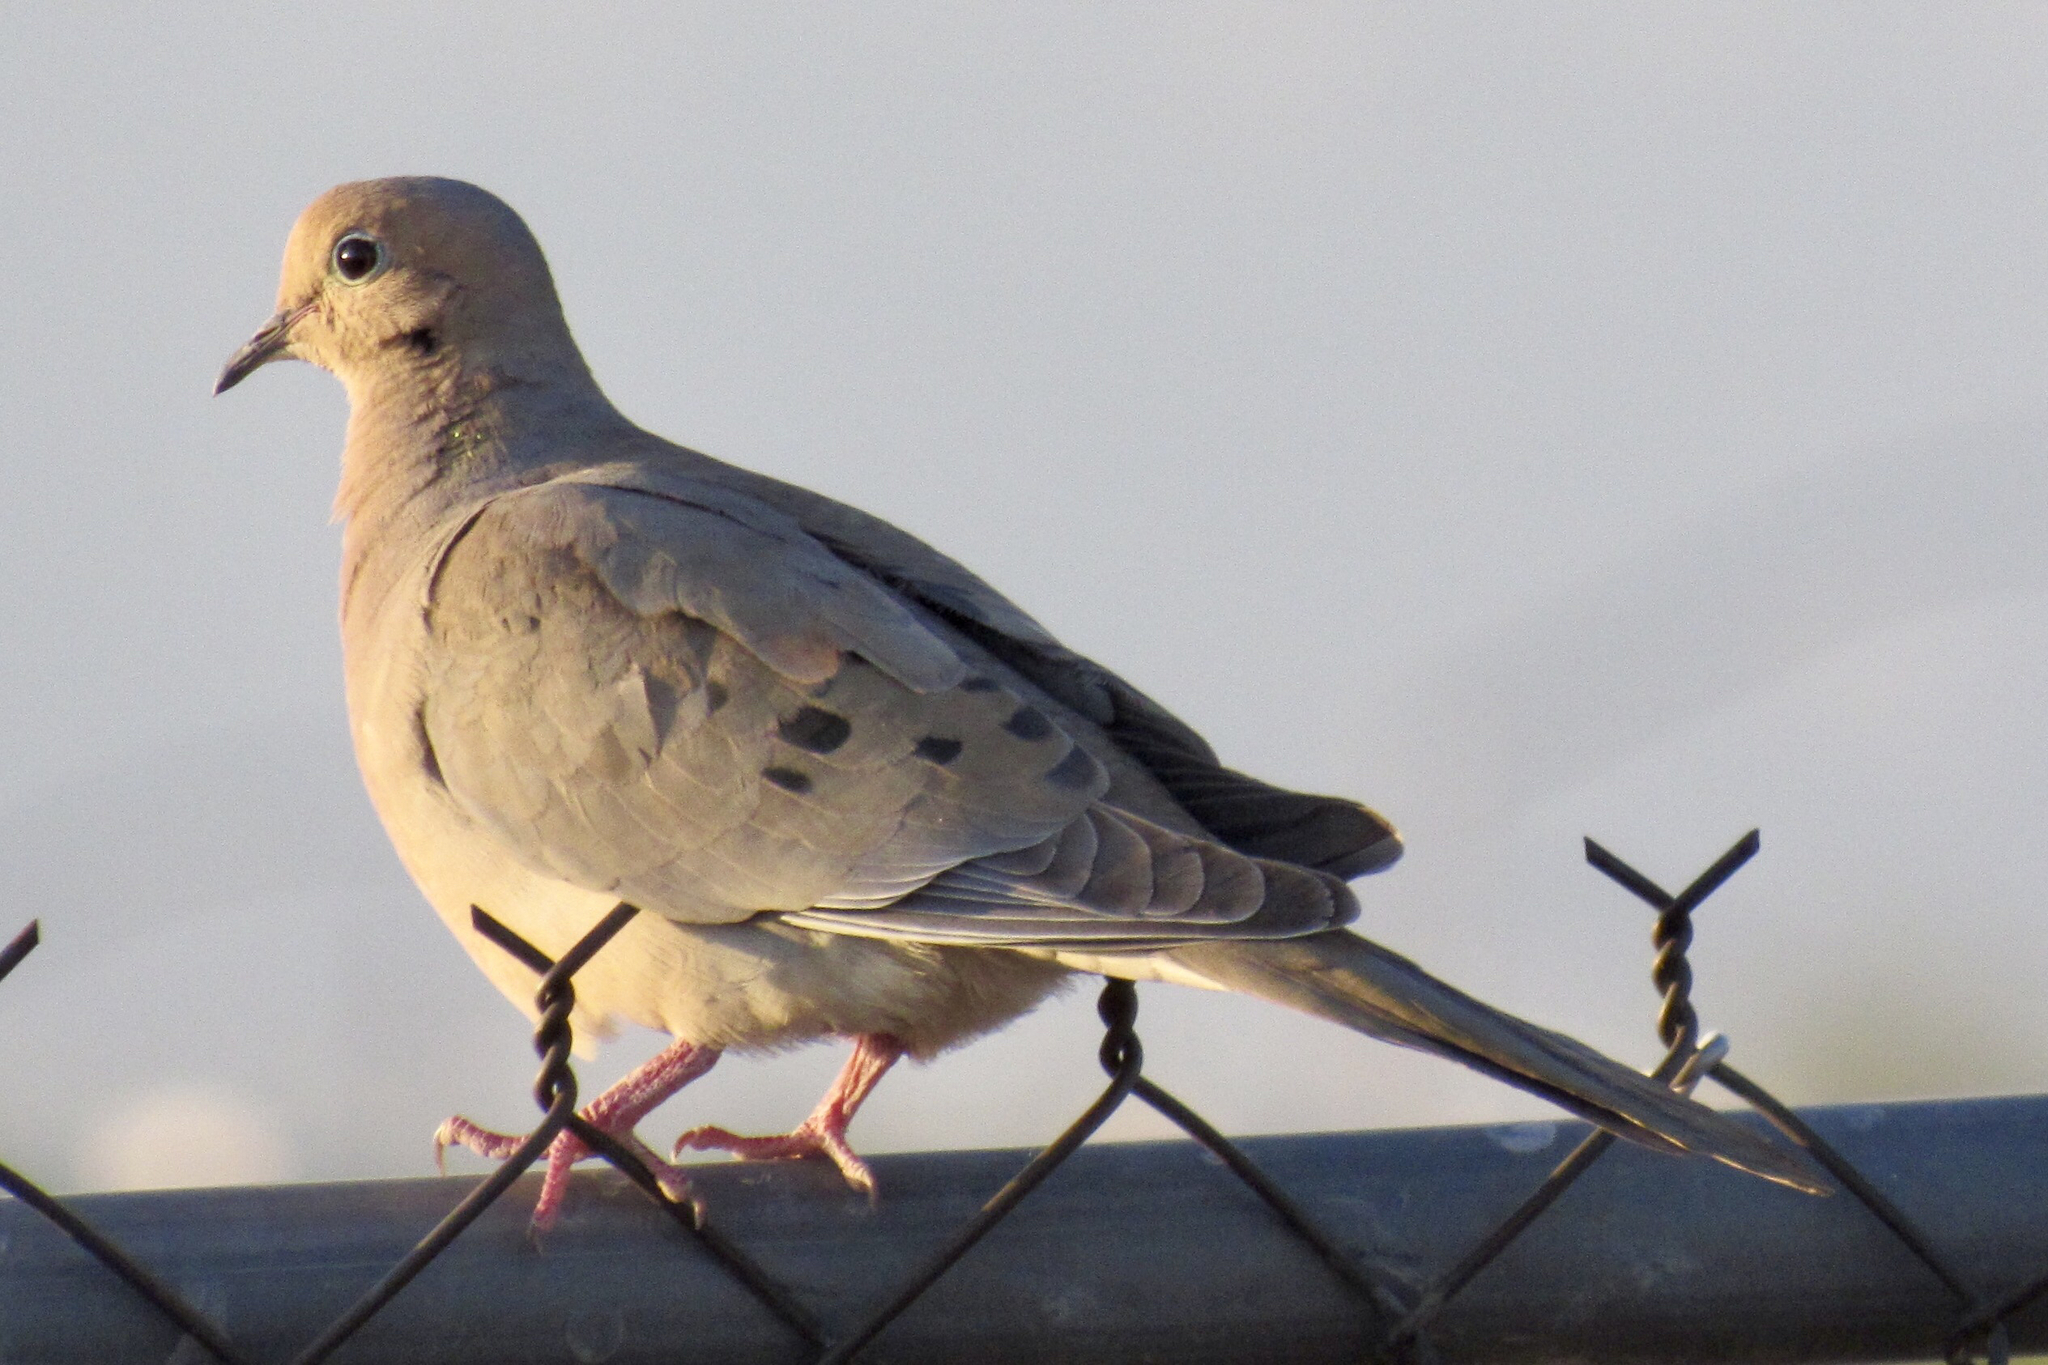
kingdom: Animalia
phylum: Chordata
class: Aves
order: Columbiformes
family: Columbidae
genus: Zenaida
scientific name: Zenaida macroura
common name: Mourning dove
